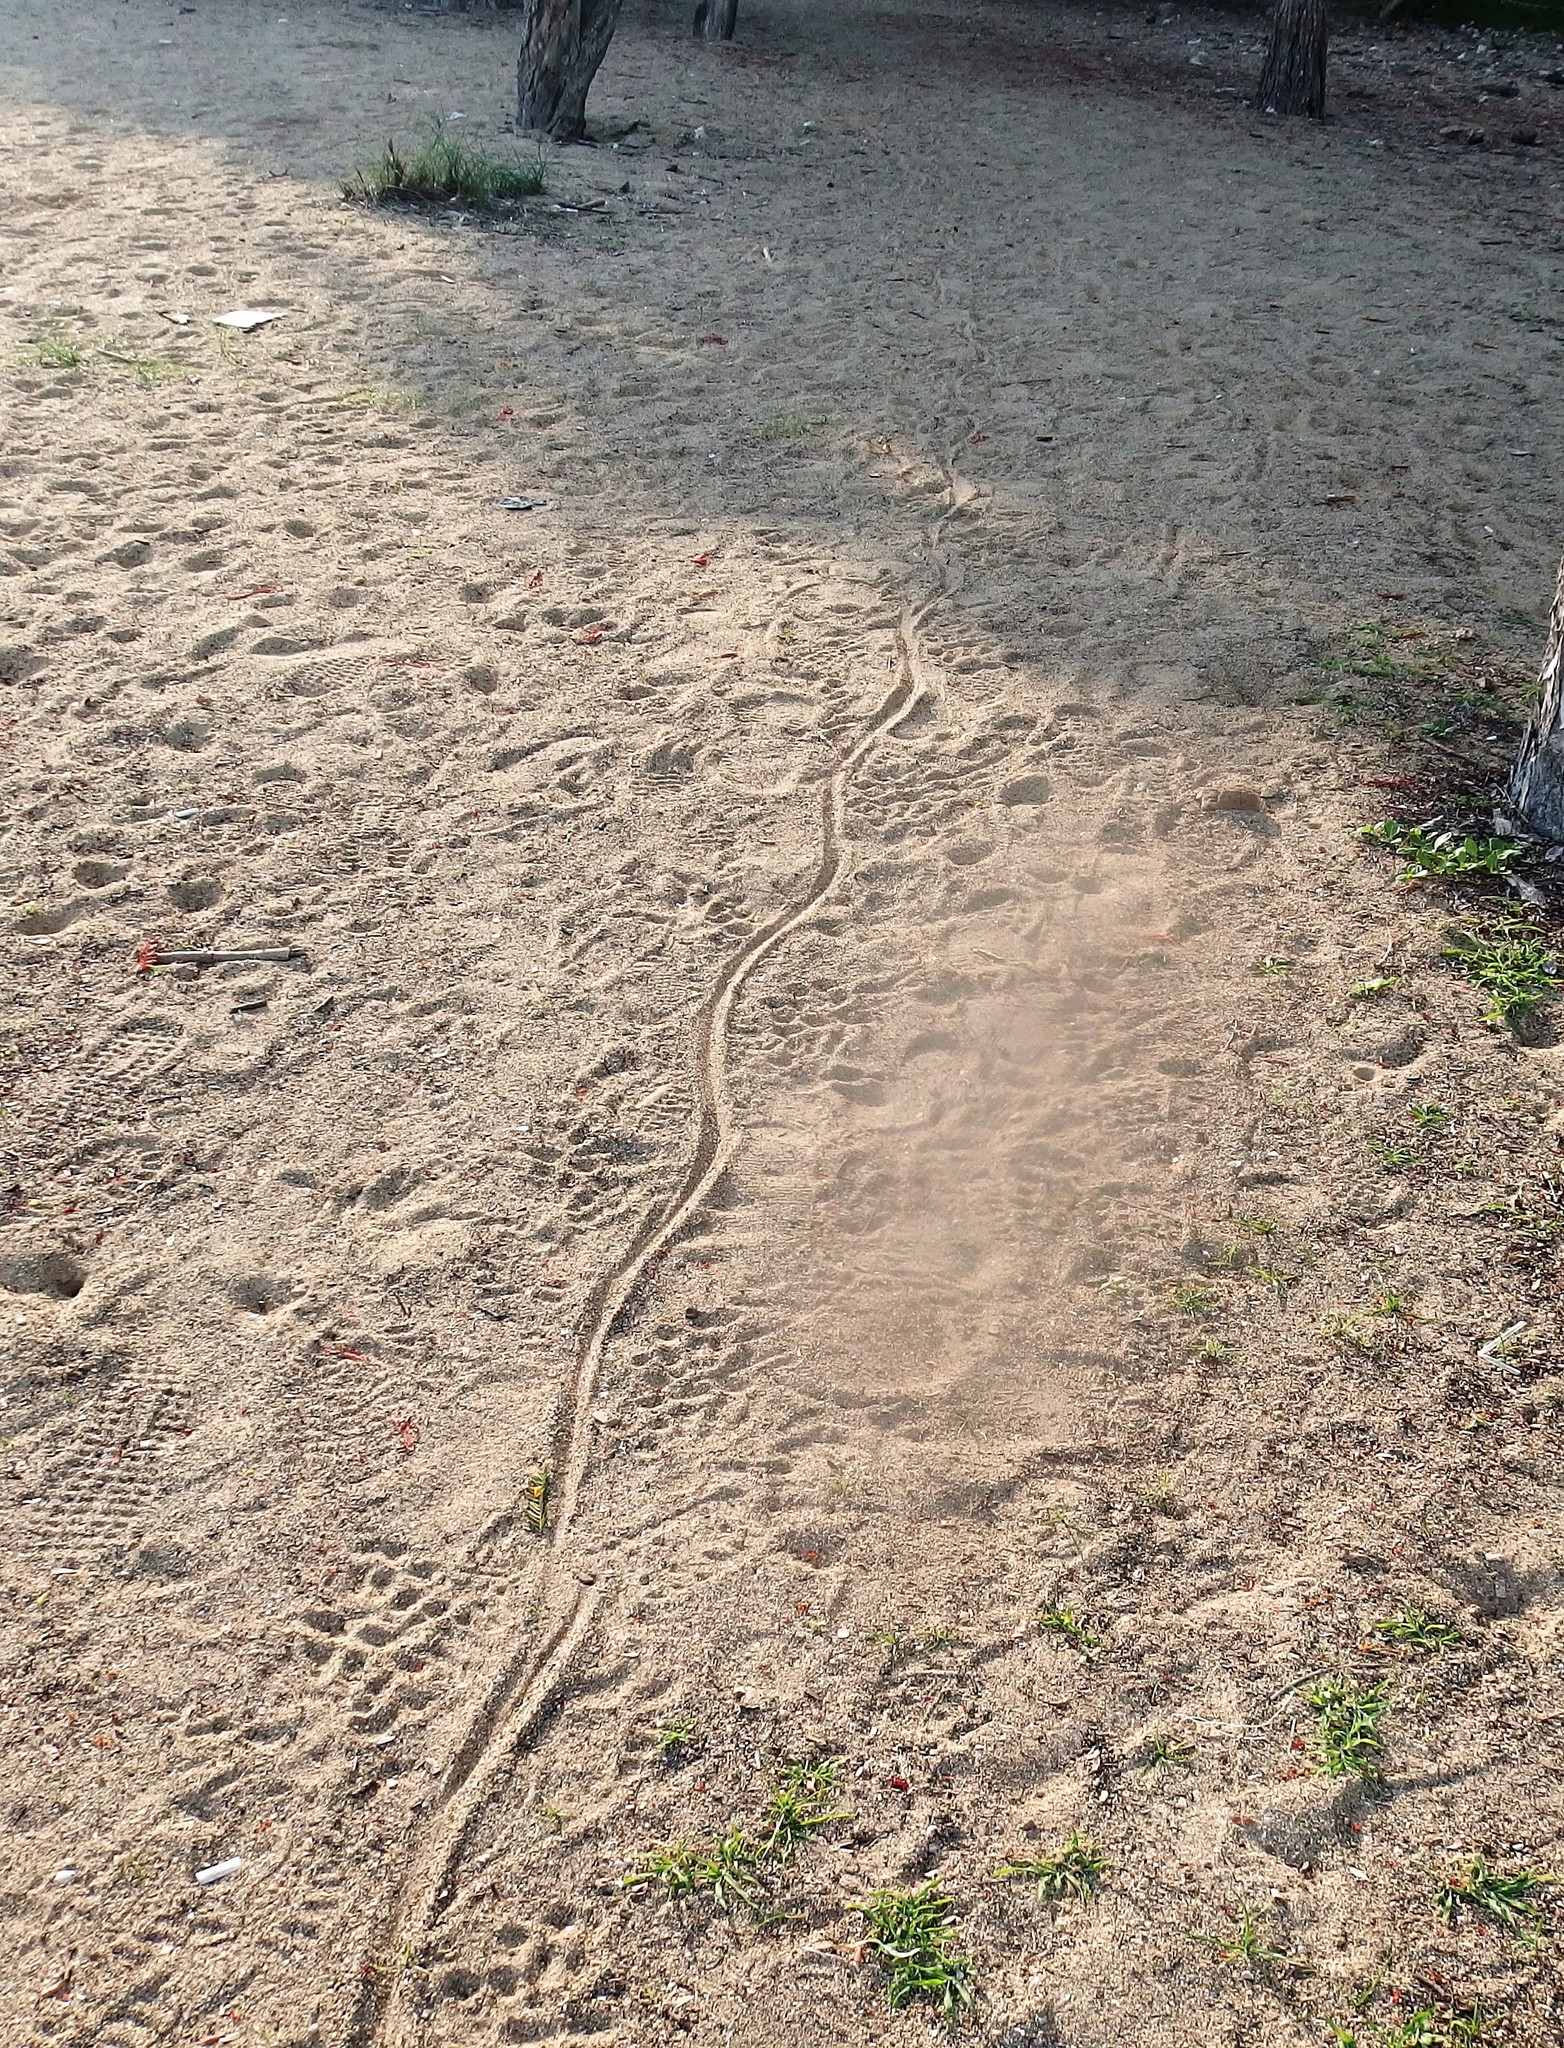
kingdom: Animalia
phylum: Chordata
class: Squamata
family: Varanidae
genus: Varanus
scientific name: Varanus komodoensis
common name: Komodo dragon
